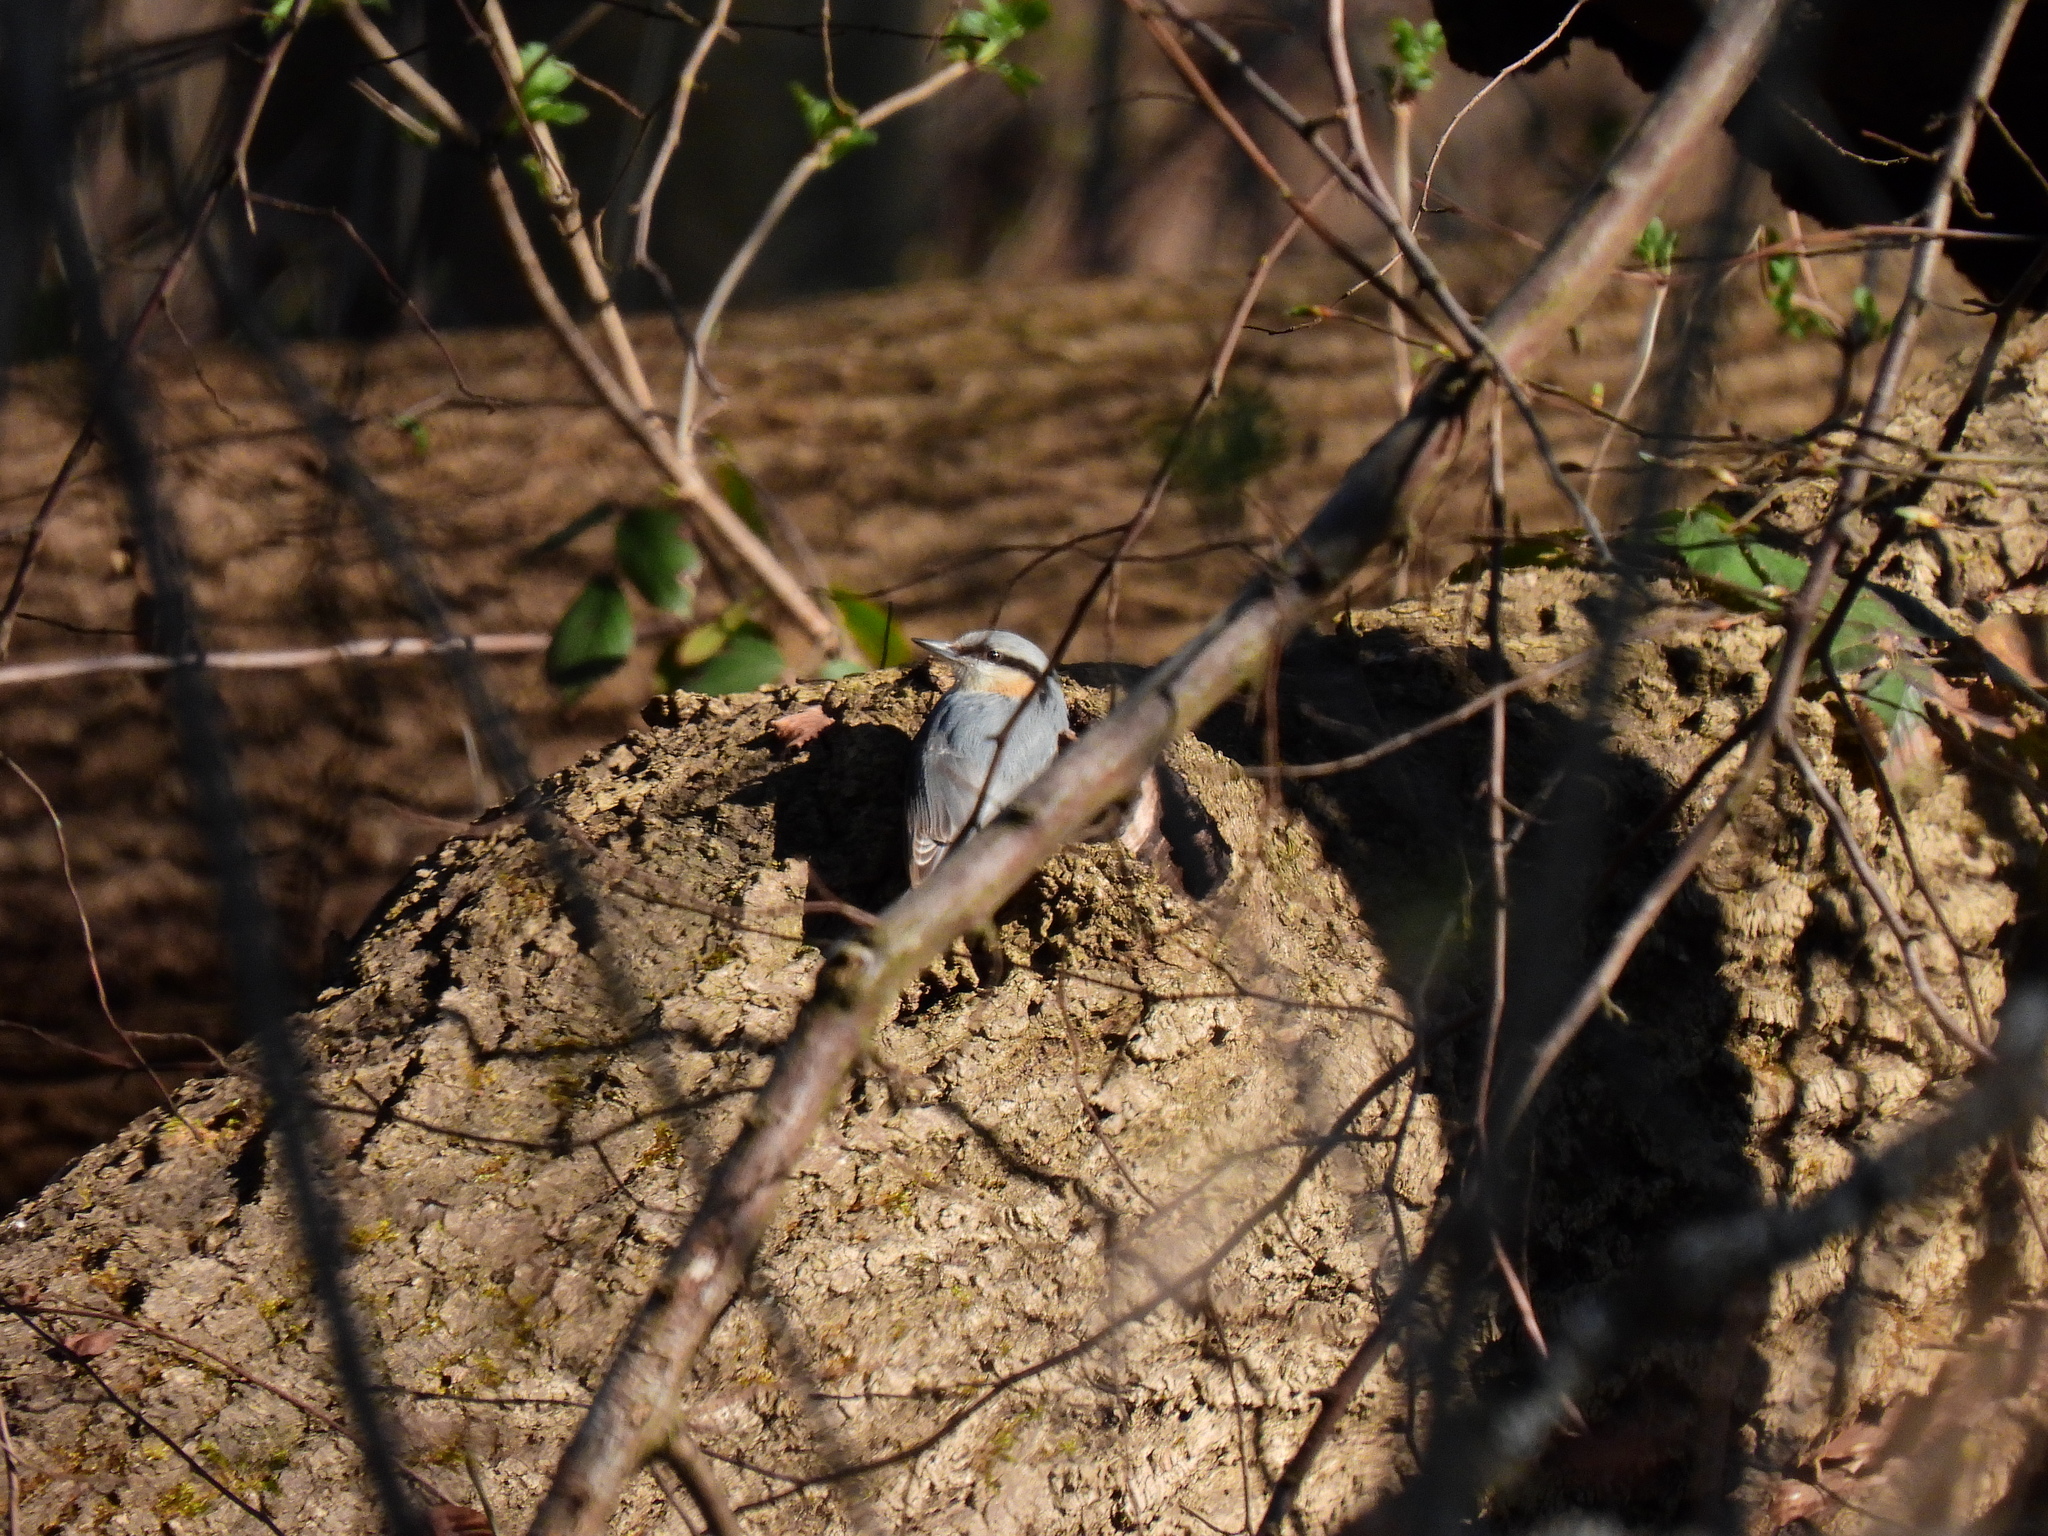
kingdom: Animalia
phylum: Chordata
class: Aves
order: Passeriformes
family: Sittidae
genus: Sitta
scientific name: Sitta europaea
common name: Eurasian nuthatch
